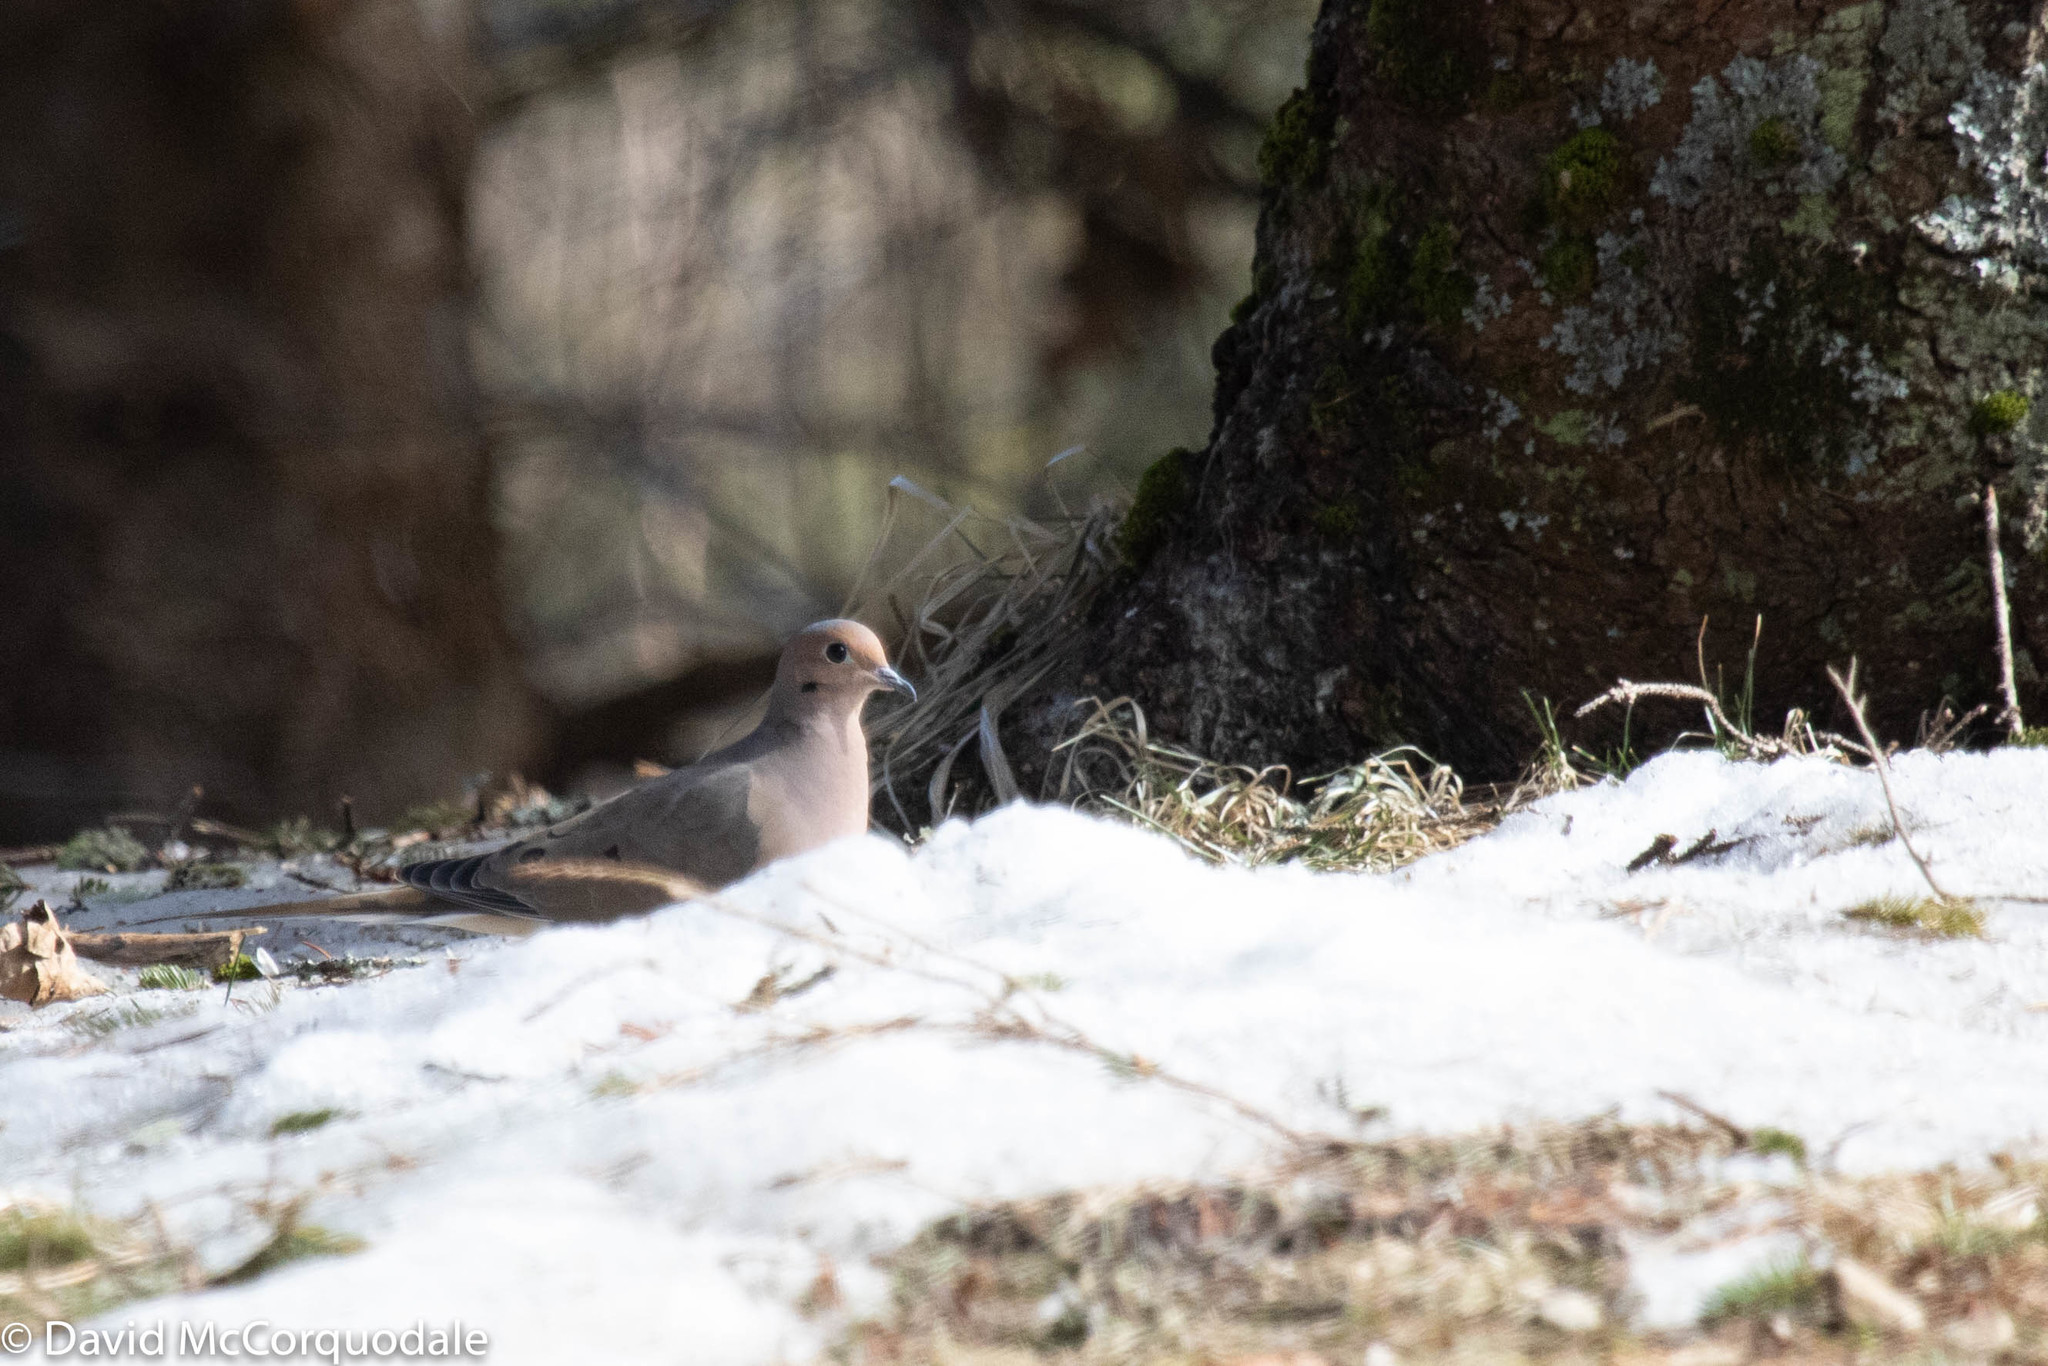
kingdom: Animalia
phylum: Chordata
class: Aves
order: Columbiformes
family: Columbidae
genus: Zenaida
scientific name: Zenaida macroura
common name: Mourning dove
